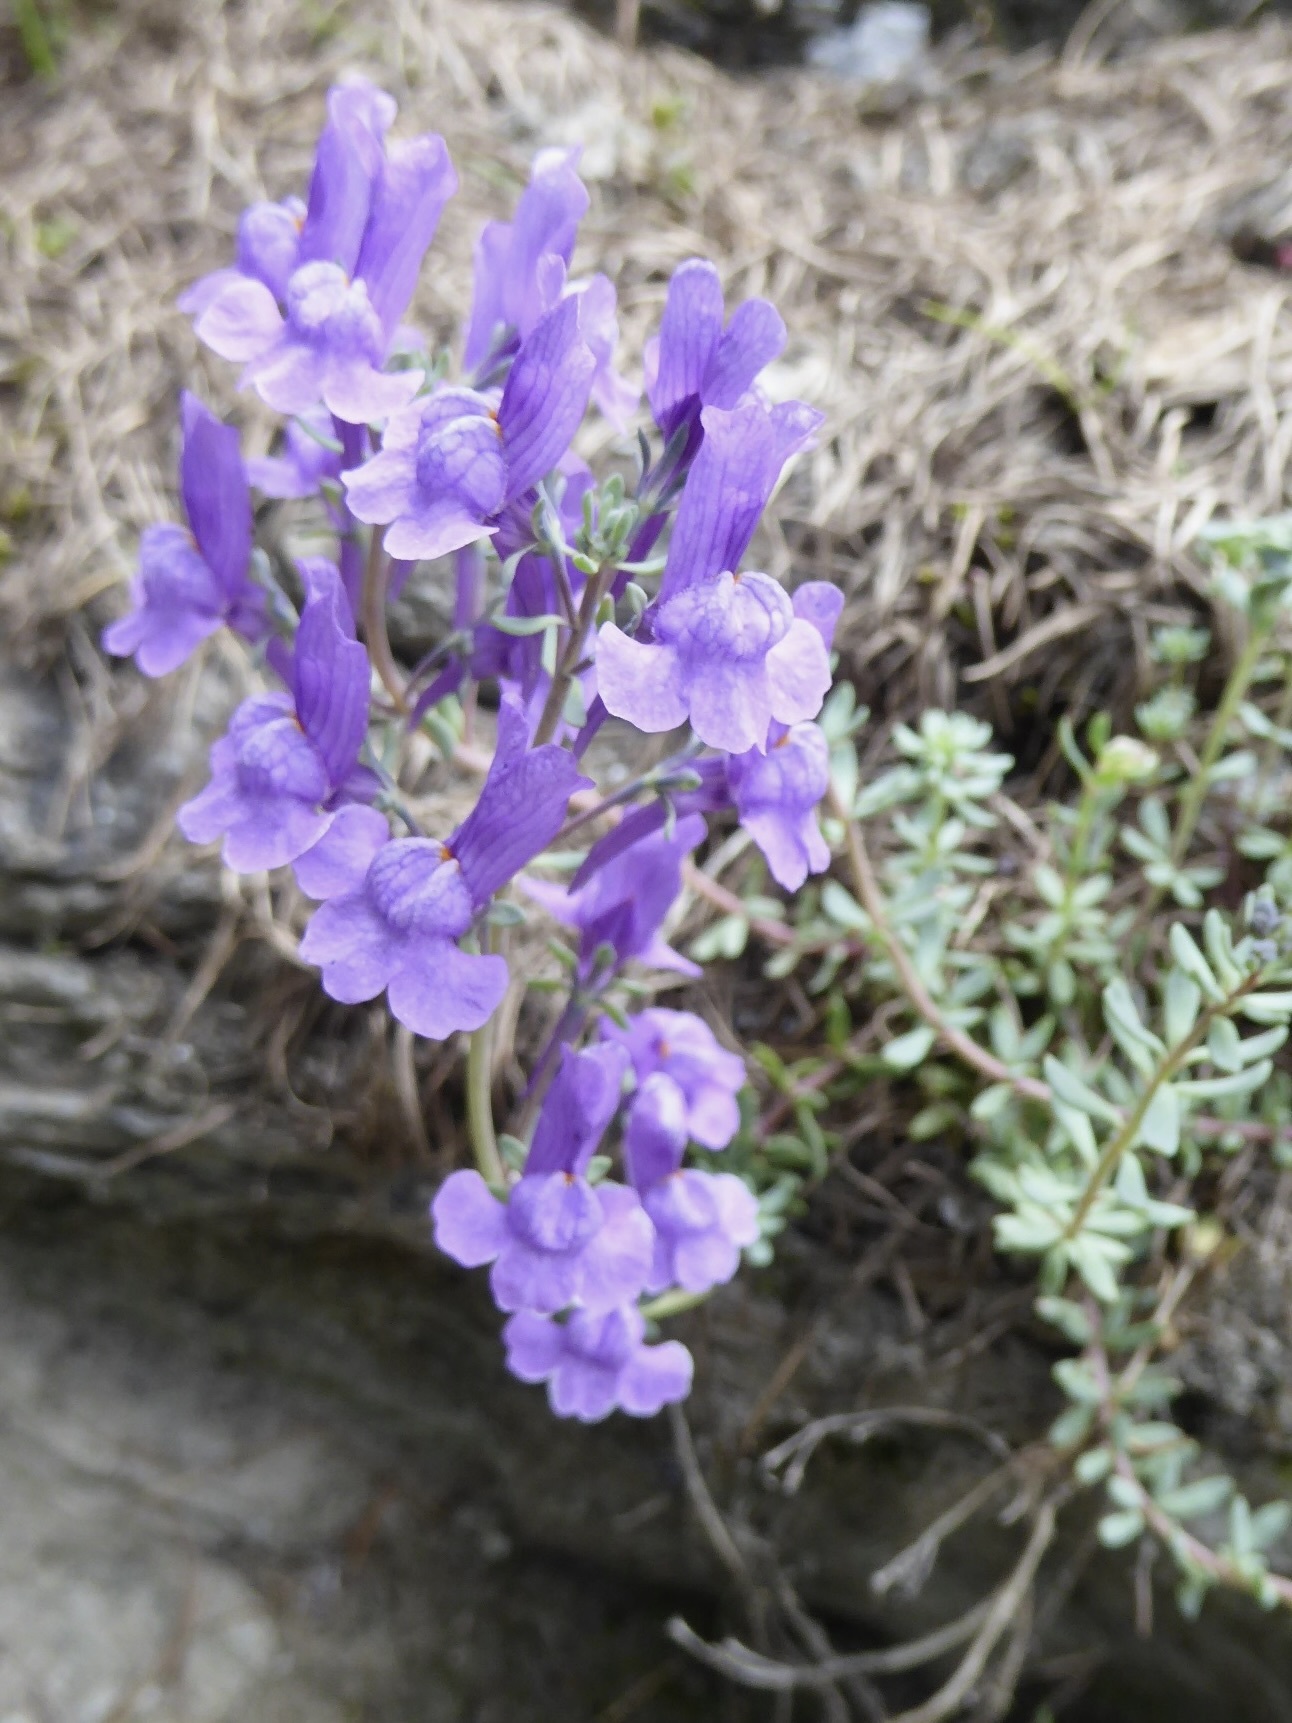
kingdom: Plantae
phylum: Tracheophyta
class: Magnoliopsida
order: Lamiales
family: Plantaginaceae
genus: Linaria
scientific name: Linaria alpina
